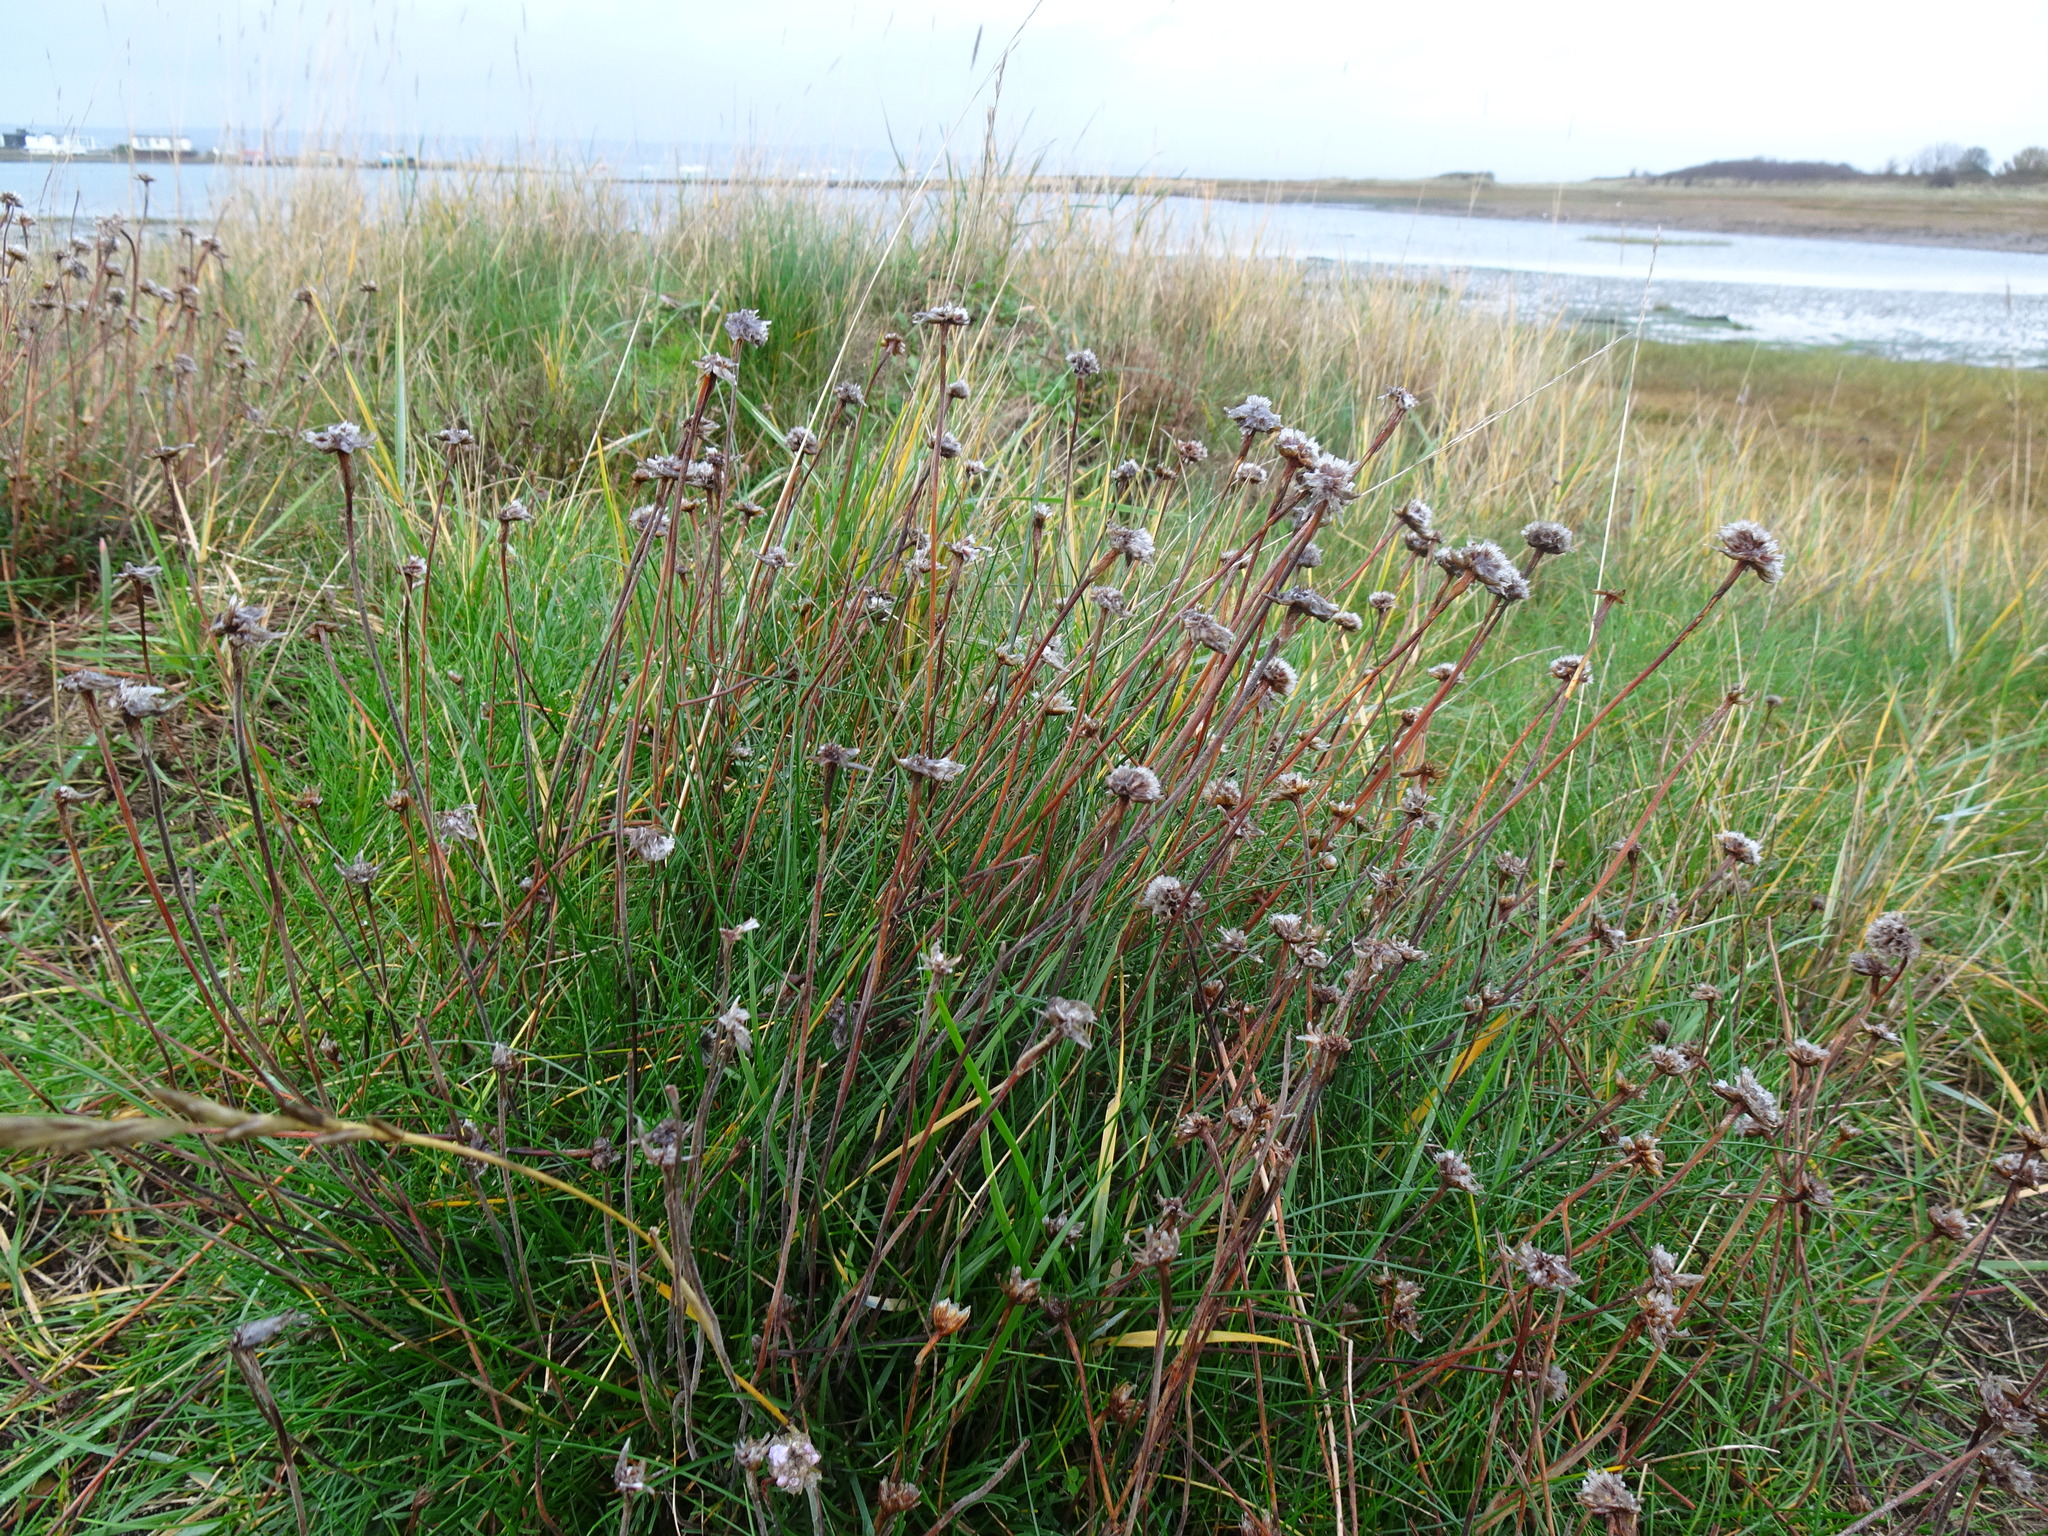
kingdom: Plantae
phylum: Tracheophyta
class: Magnoliopsida
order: Caryophyllales
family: Plumbaginaceae
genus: Armeria
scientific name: Armeria maritima
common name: Thrift
